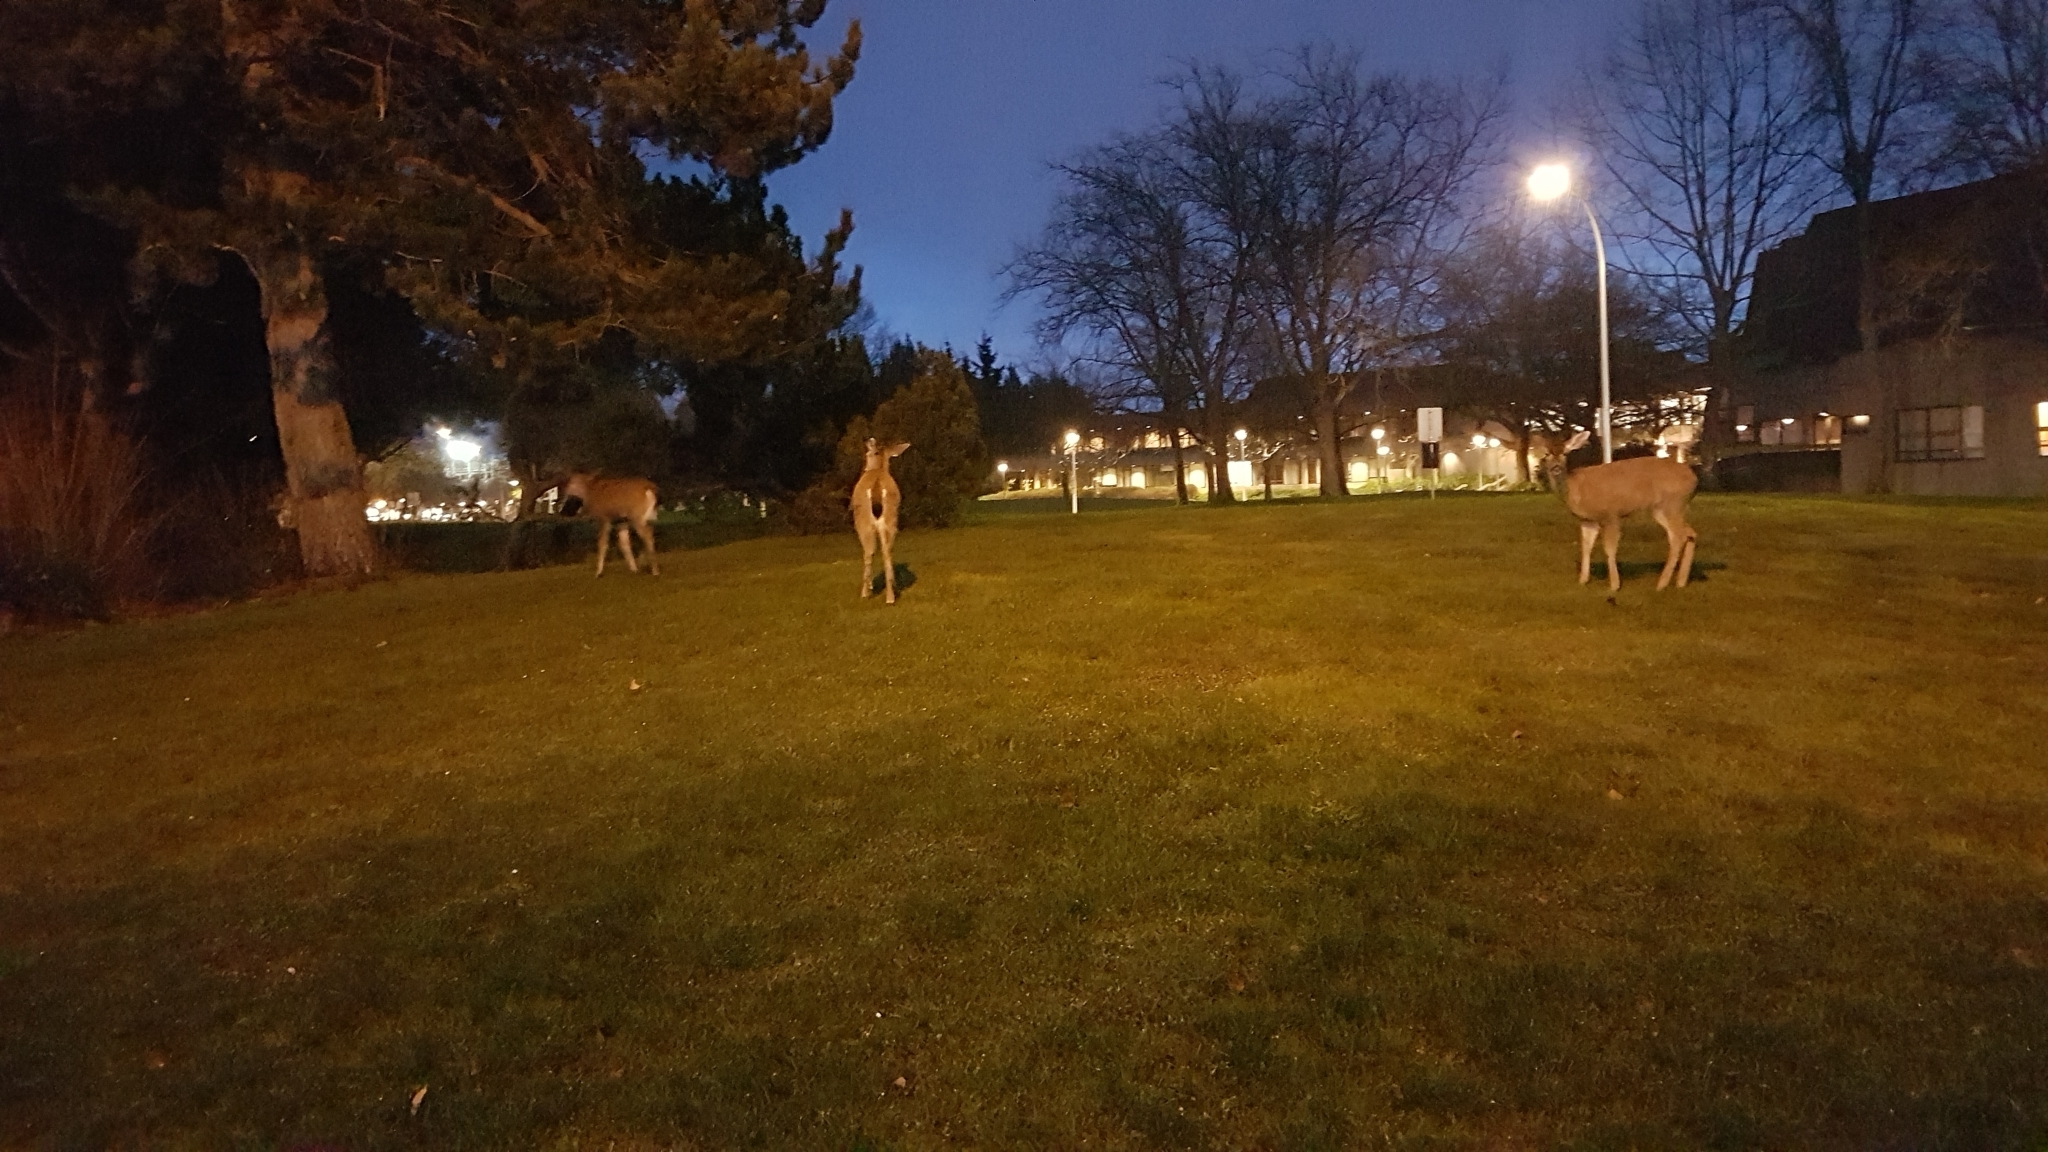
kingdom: Animalia
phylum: Chordata
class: Mammalia
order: Artiodactyla
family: Cervidae
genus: Odocoileus
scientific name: Odocoileus hemionus
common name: Mule deer
